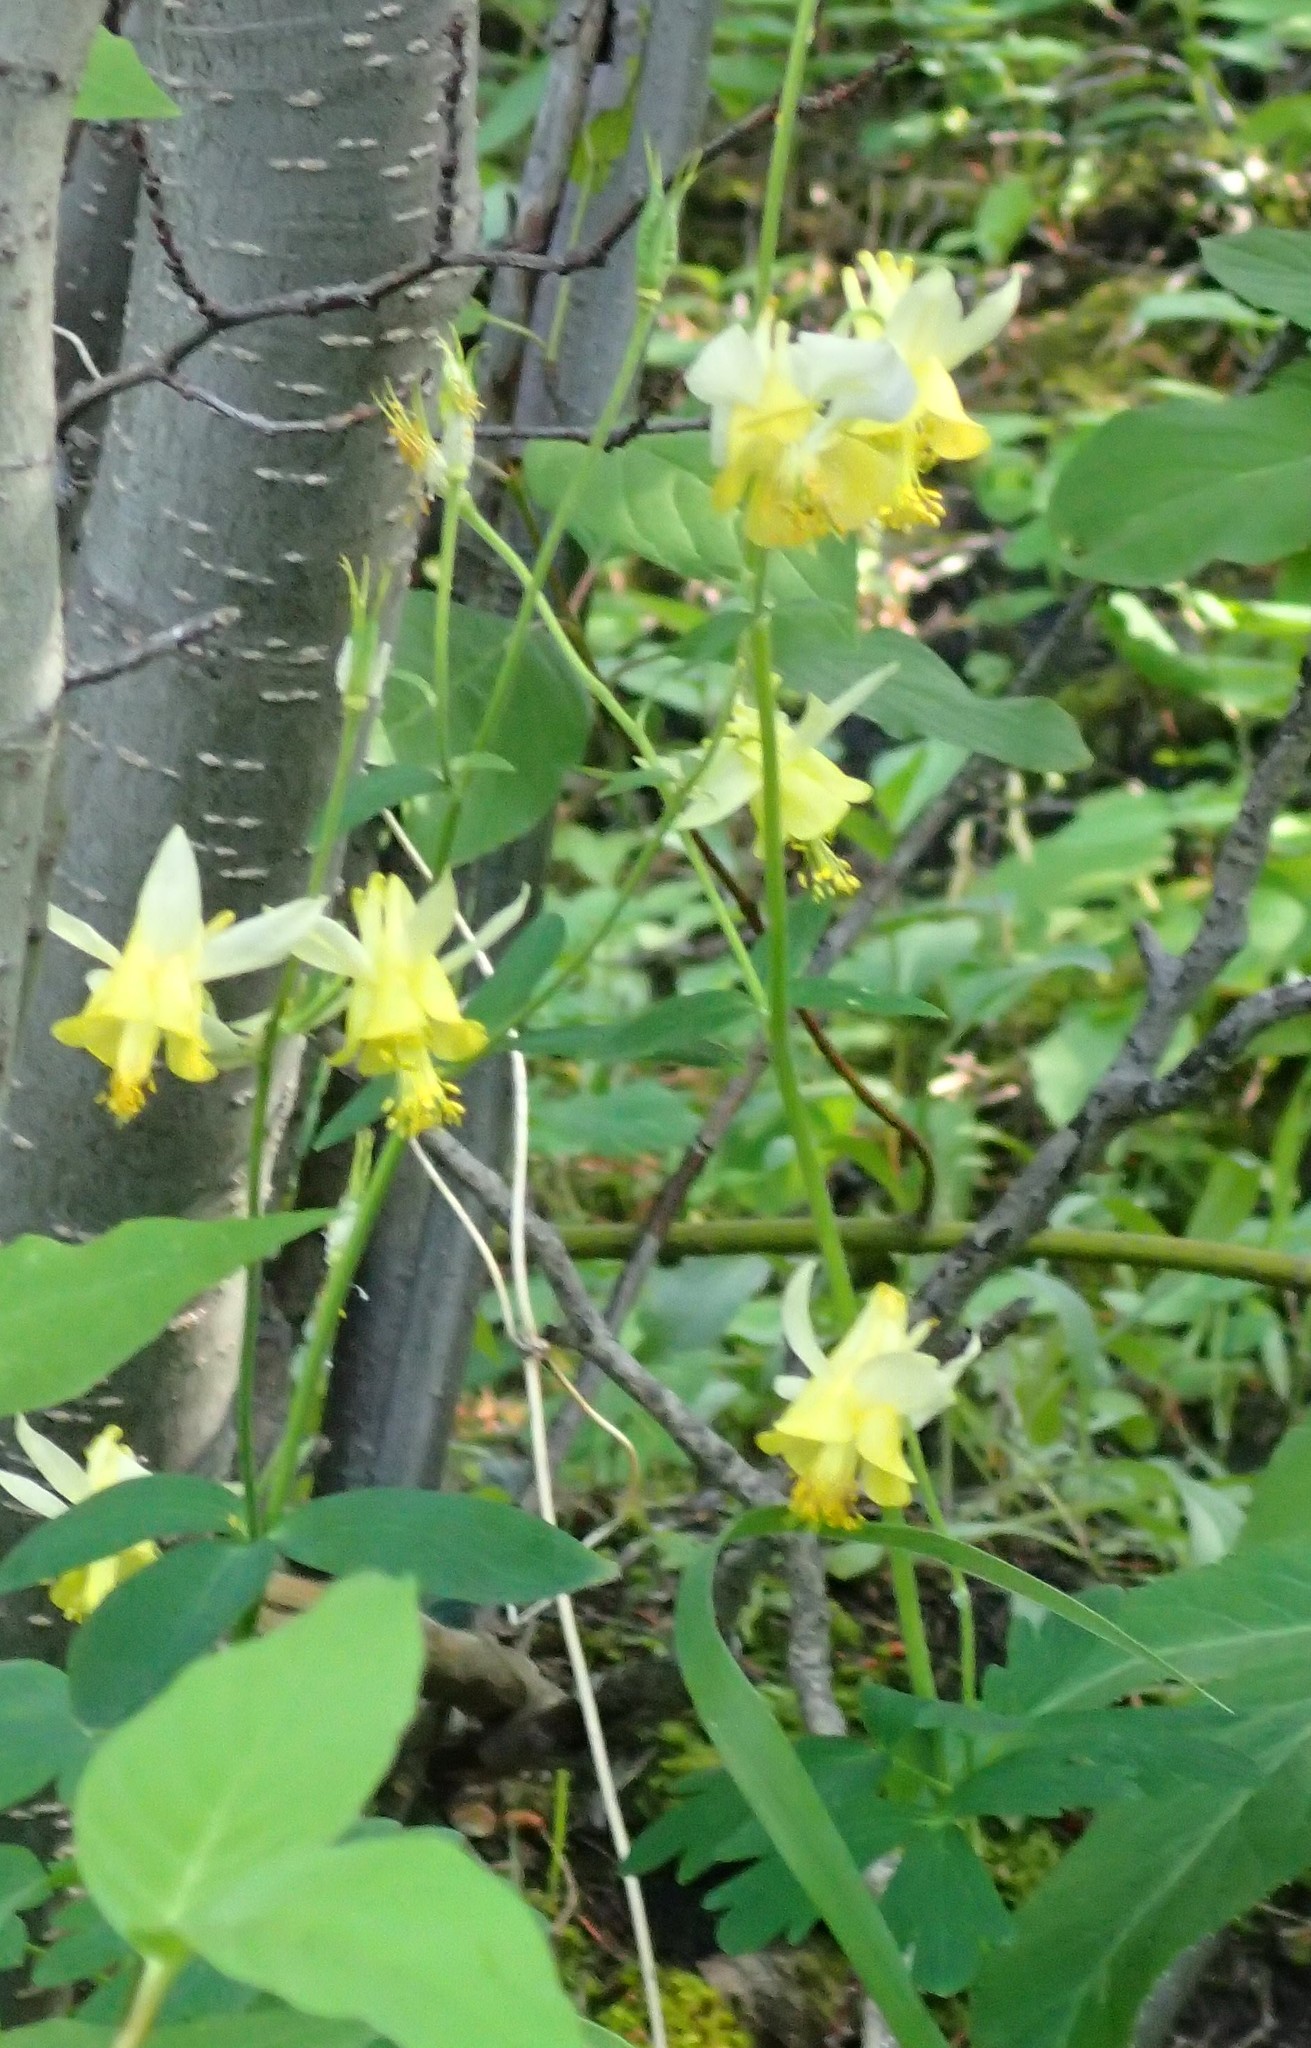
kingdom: Plantae
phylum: Tracheophyta
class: Magnoliopsida
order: Ranunculales
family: Ranunculaceae
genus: Aquilegia
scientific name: Aquilegia flavescens
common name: Yellow columbine
